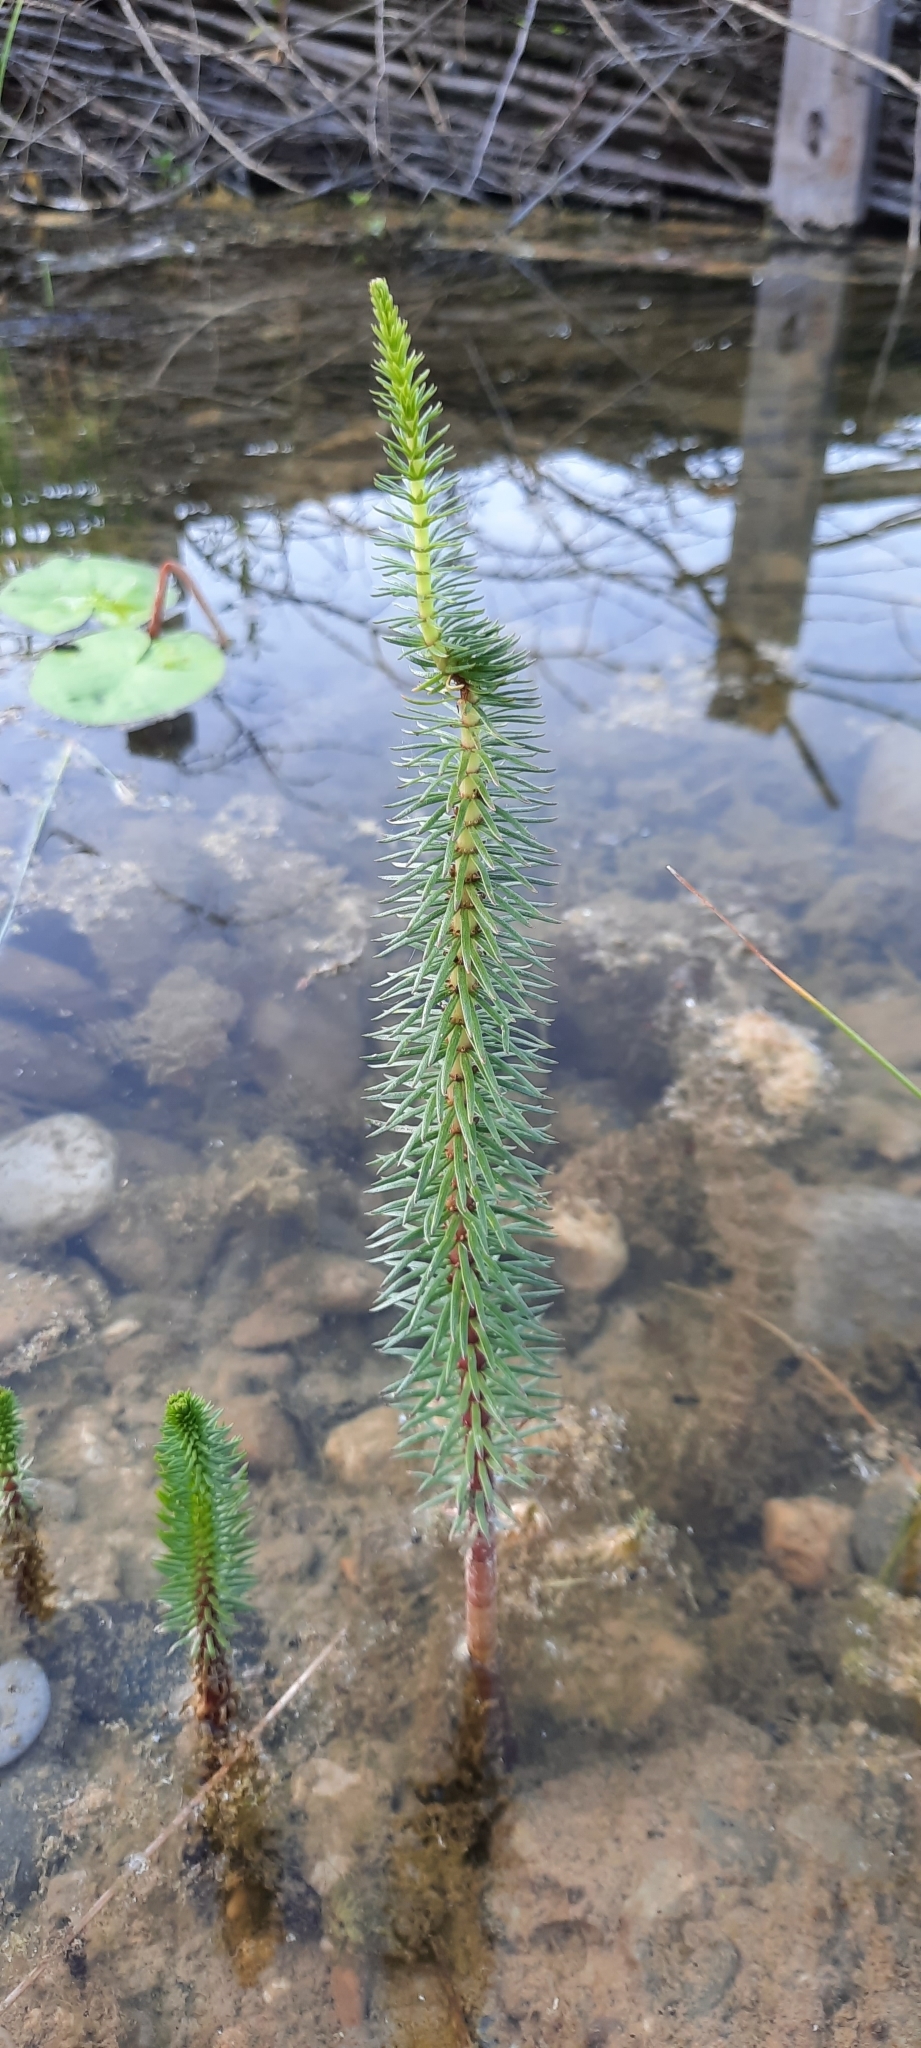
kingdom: Plantae
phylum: Tracheophyta
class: Magnoliopsida
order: Lamiales
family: Plantaginaceae
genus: Hippuris
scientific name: Hippuris vulgaris
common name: Mare's-tail
